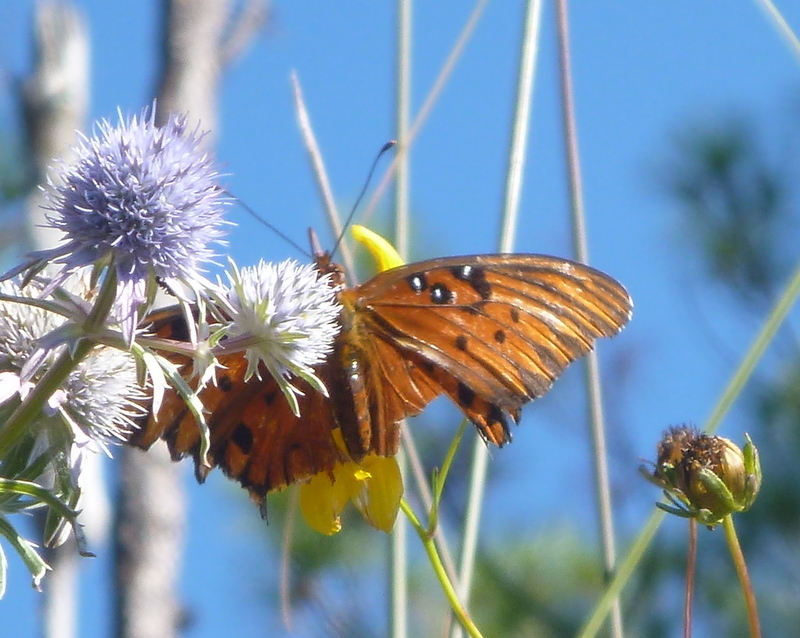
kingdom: Animalia
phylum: Arthropoda
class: Insecta
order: Lepidoptera
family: Nymphalidae
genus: Dione
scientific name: Dione vanillae
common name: Gulf fritillary
